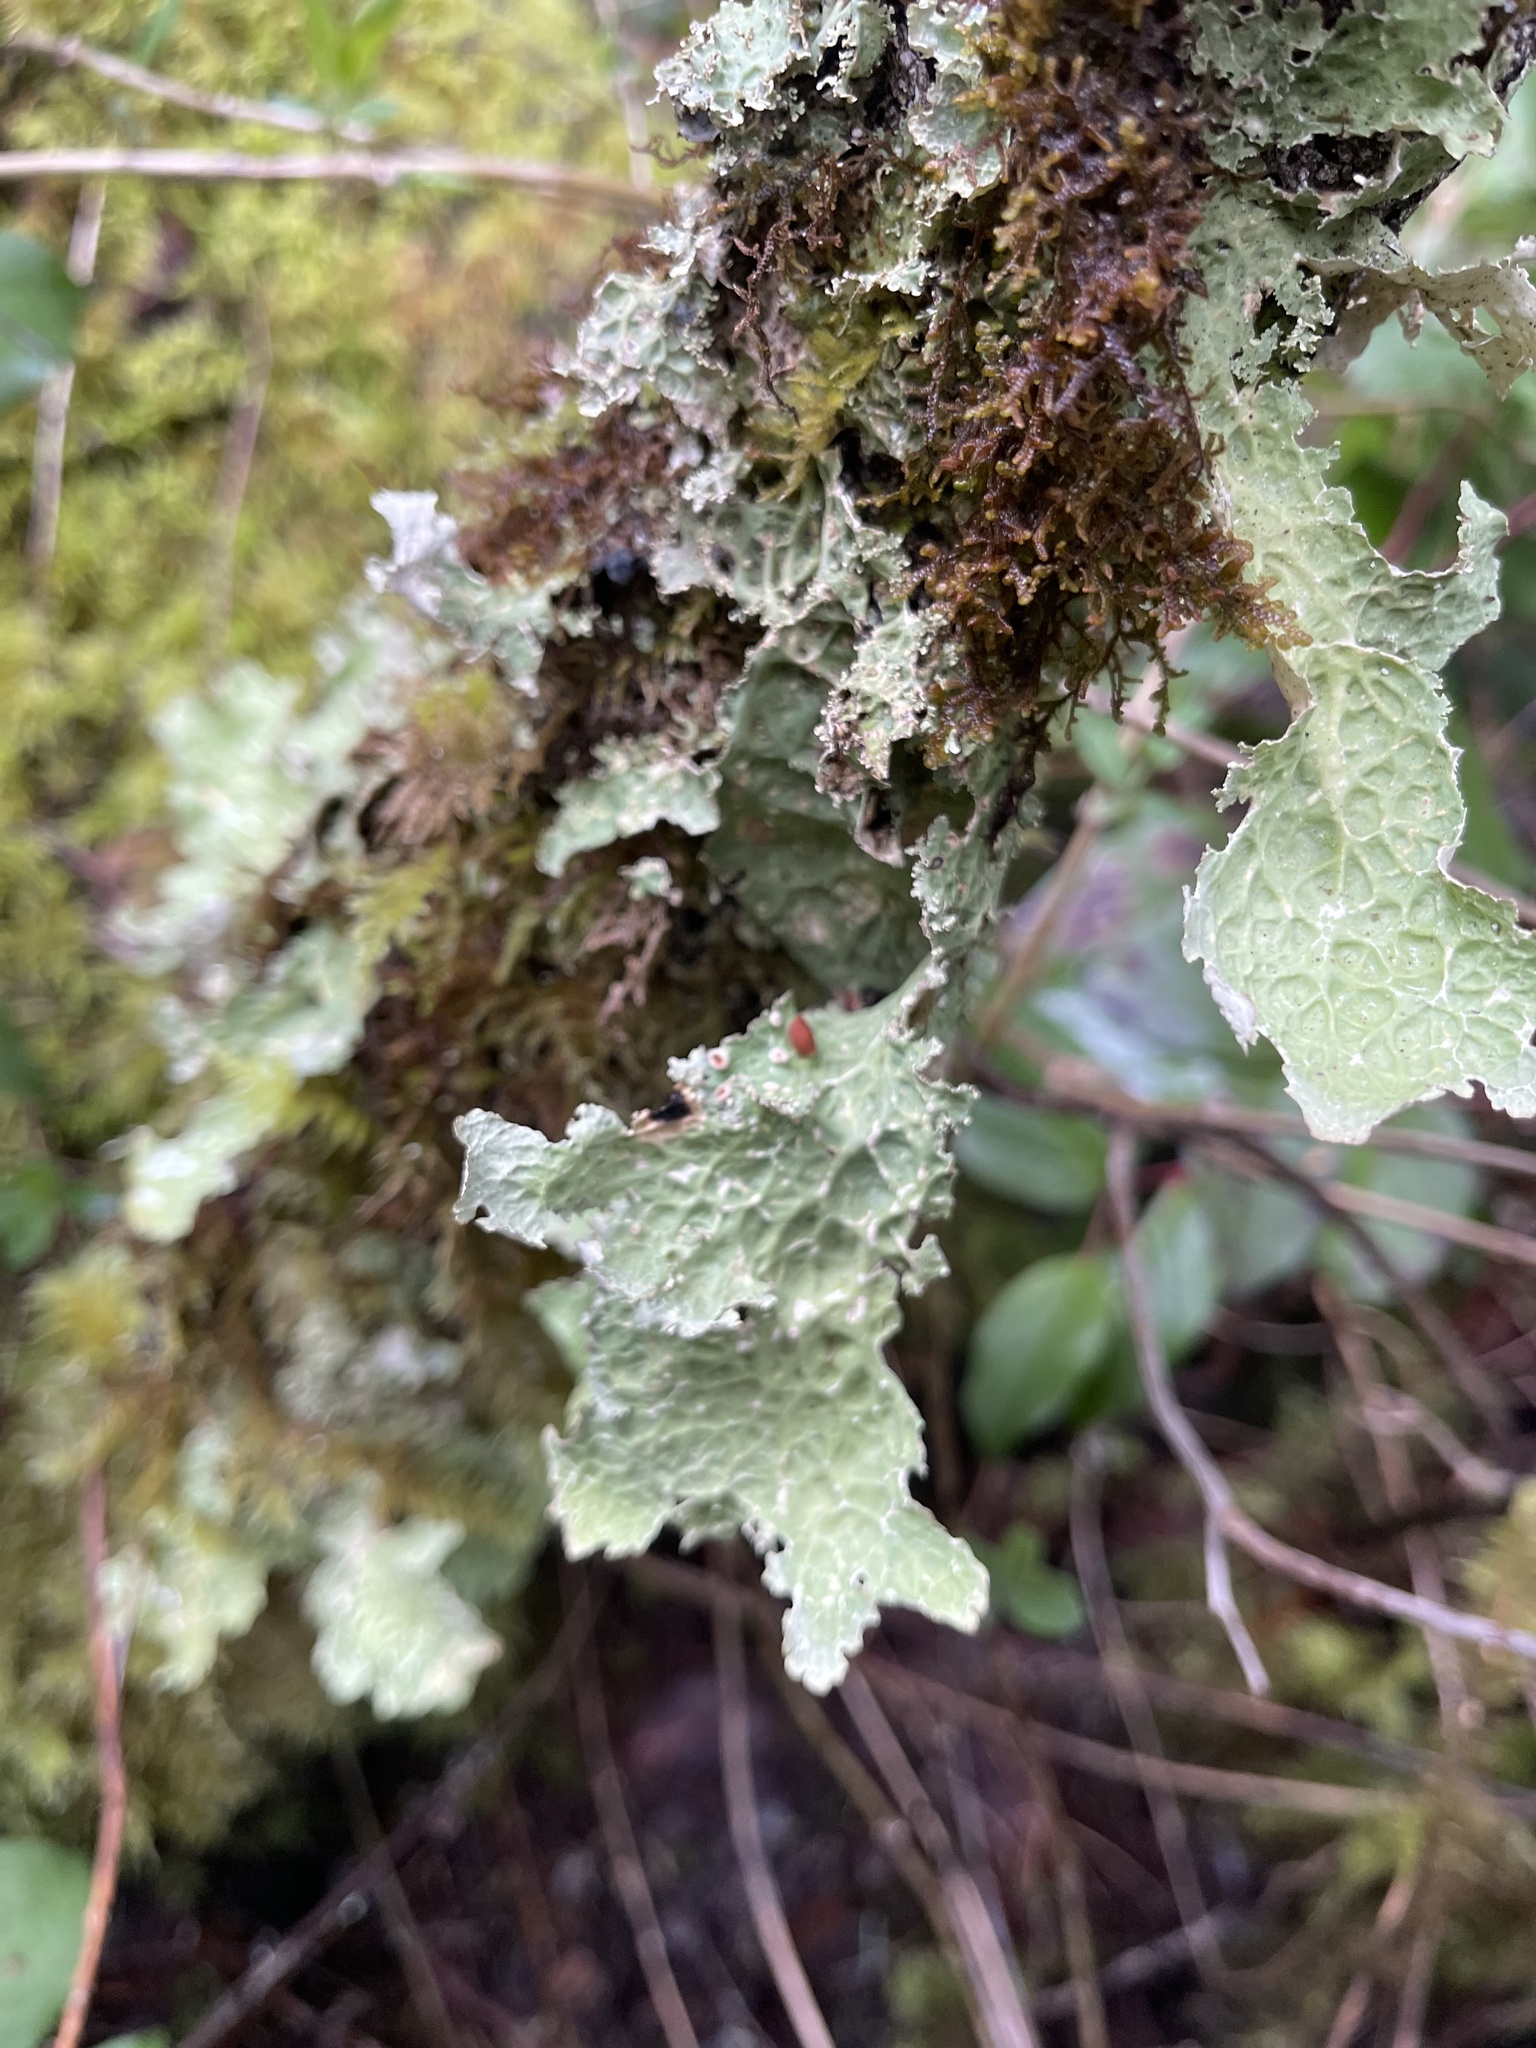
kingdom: Fungi
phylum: Ascomycota
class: Lecanoromycetes
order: Peltigerales
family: Lobariaceae
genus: Lobaria
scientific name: Lobaria oregana
